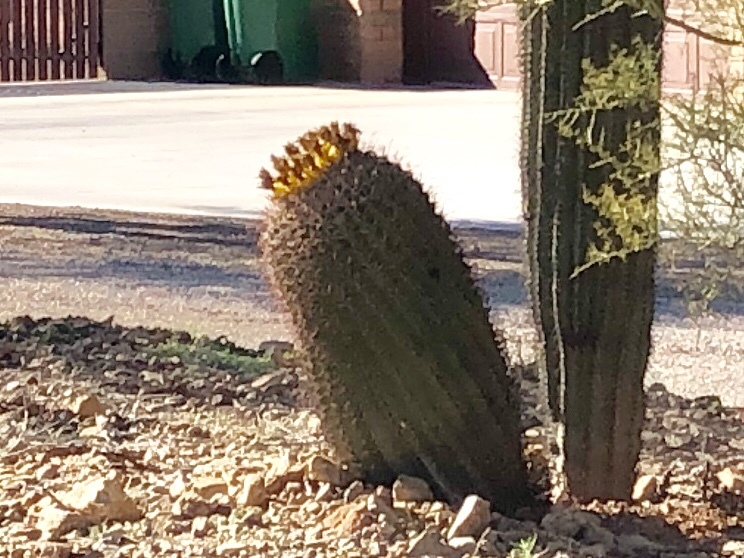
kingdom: Plantae
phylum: Tracheophyta
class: Magnoliopsida
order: Caryophyllales
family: Cactaceae
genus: Ferocactus
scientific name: Ferocactus wislizeni
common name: Candy barrel cactus
